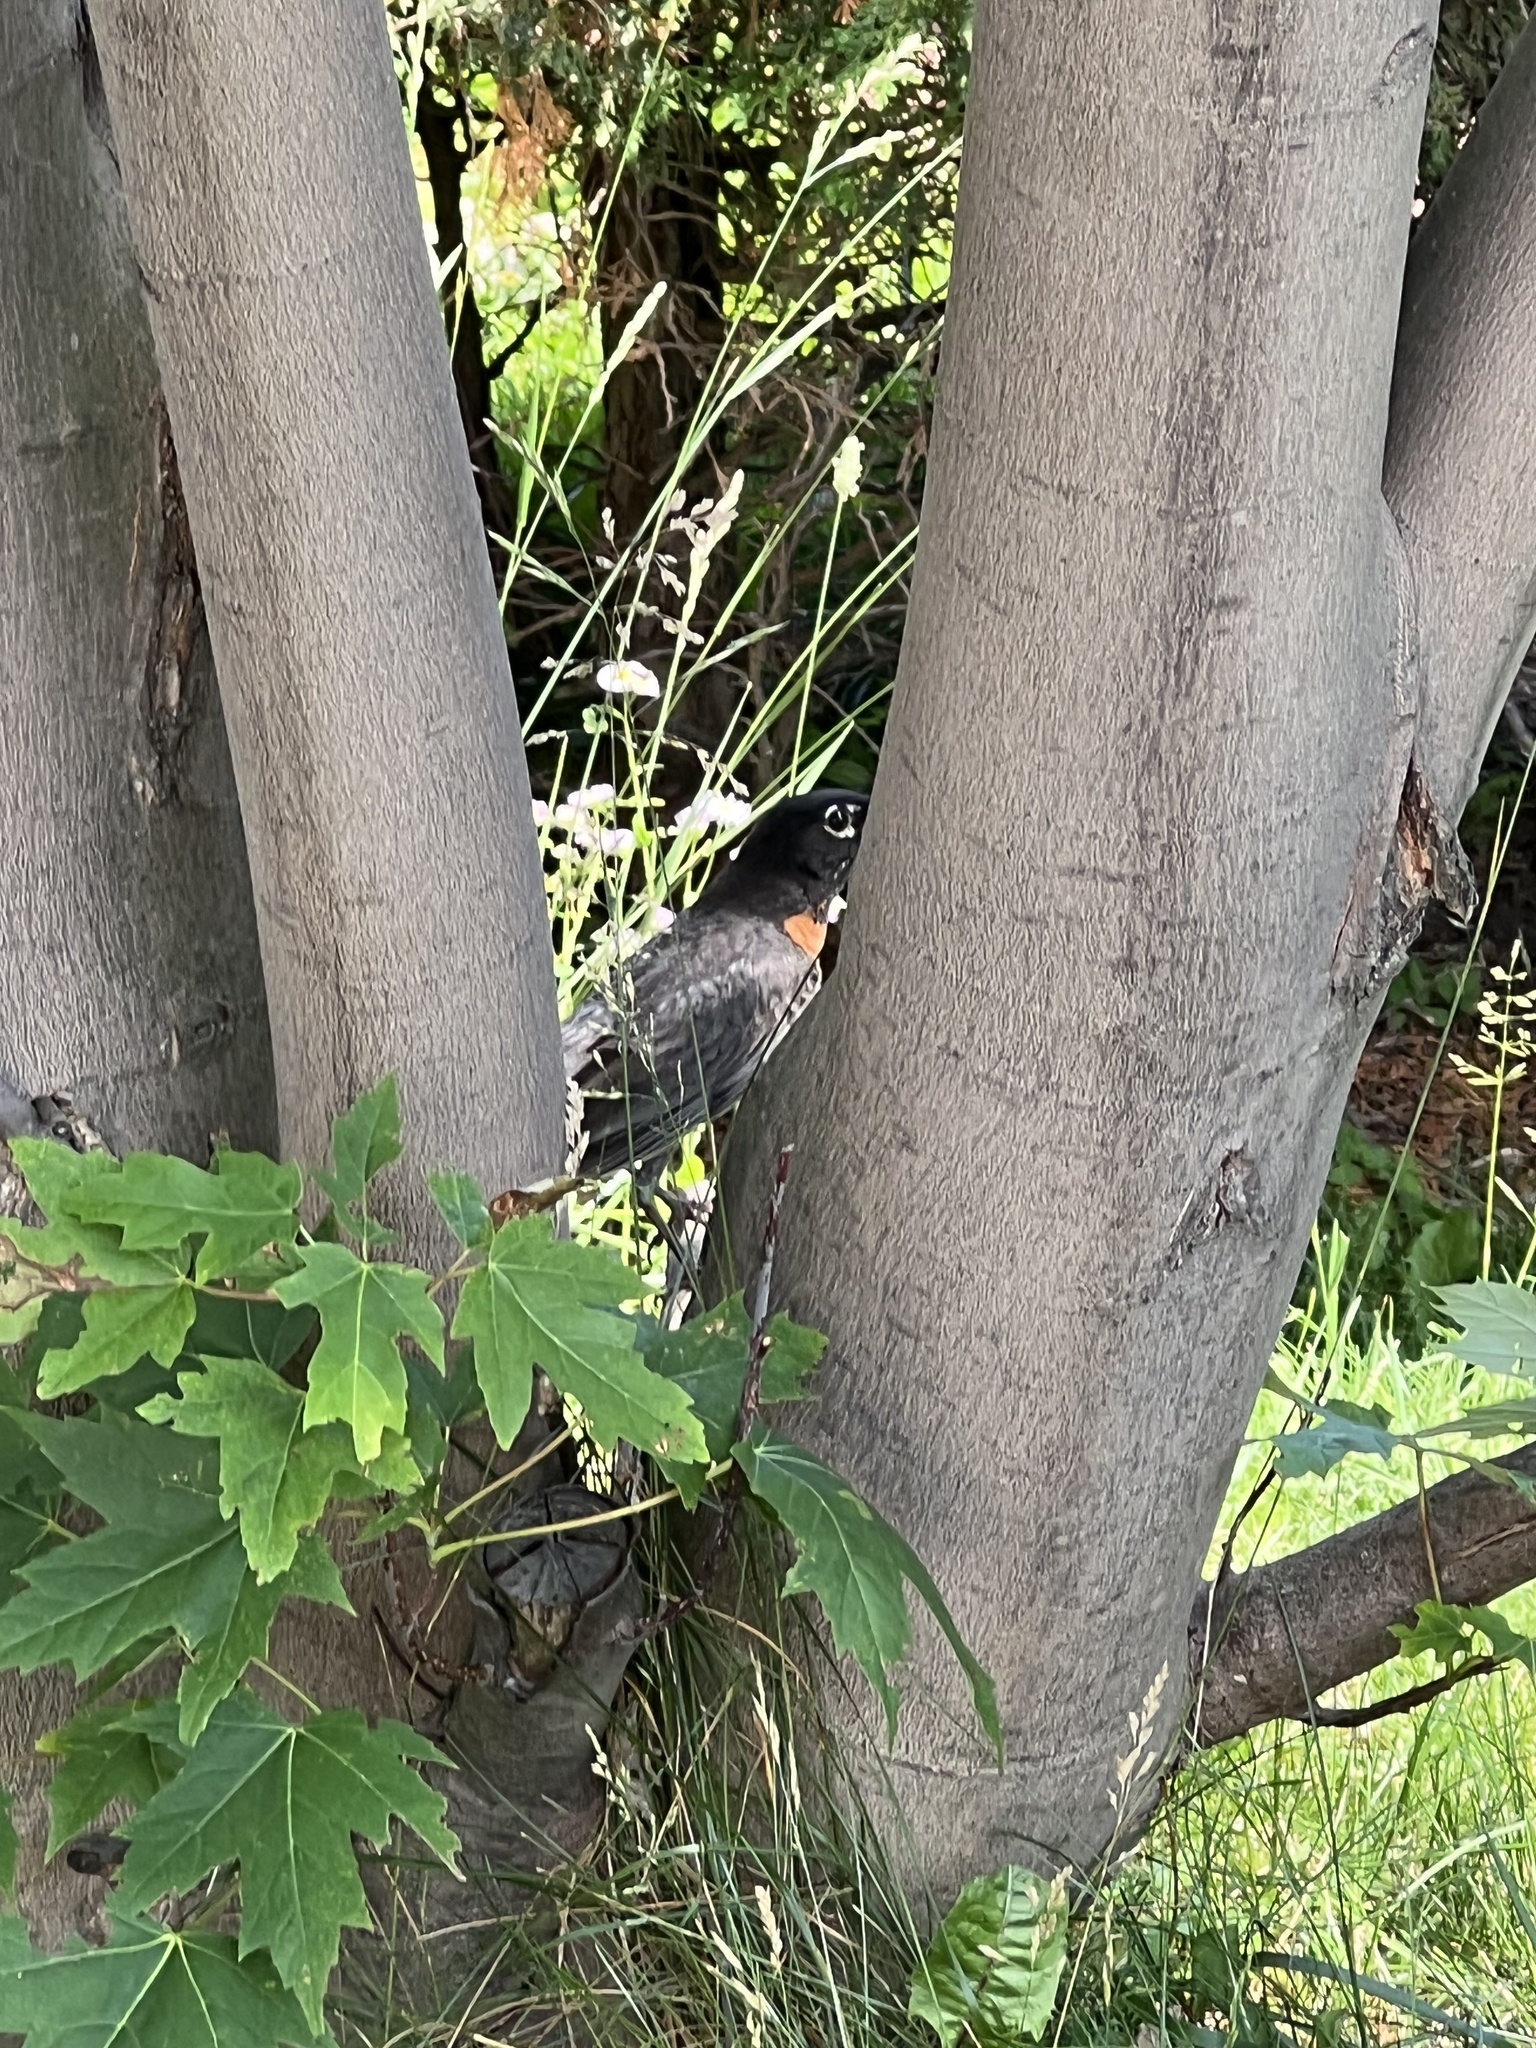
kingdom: Animalia
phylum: Chordata
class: Aves
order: Passeriformes
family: Turdidae
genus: Turdus
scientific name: Turdus migratorius
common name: American robin
